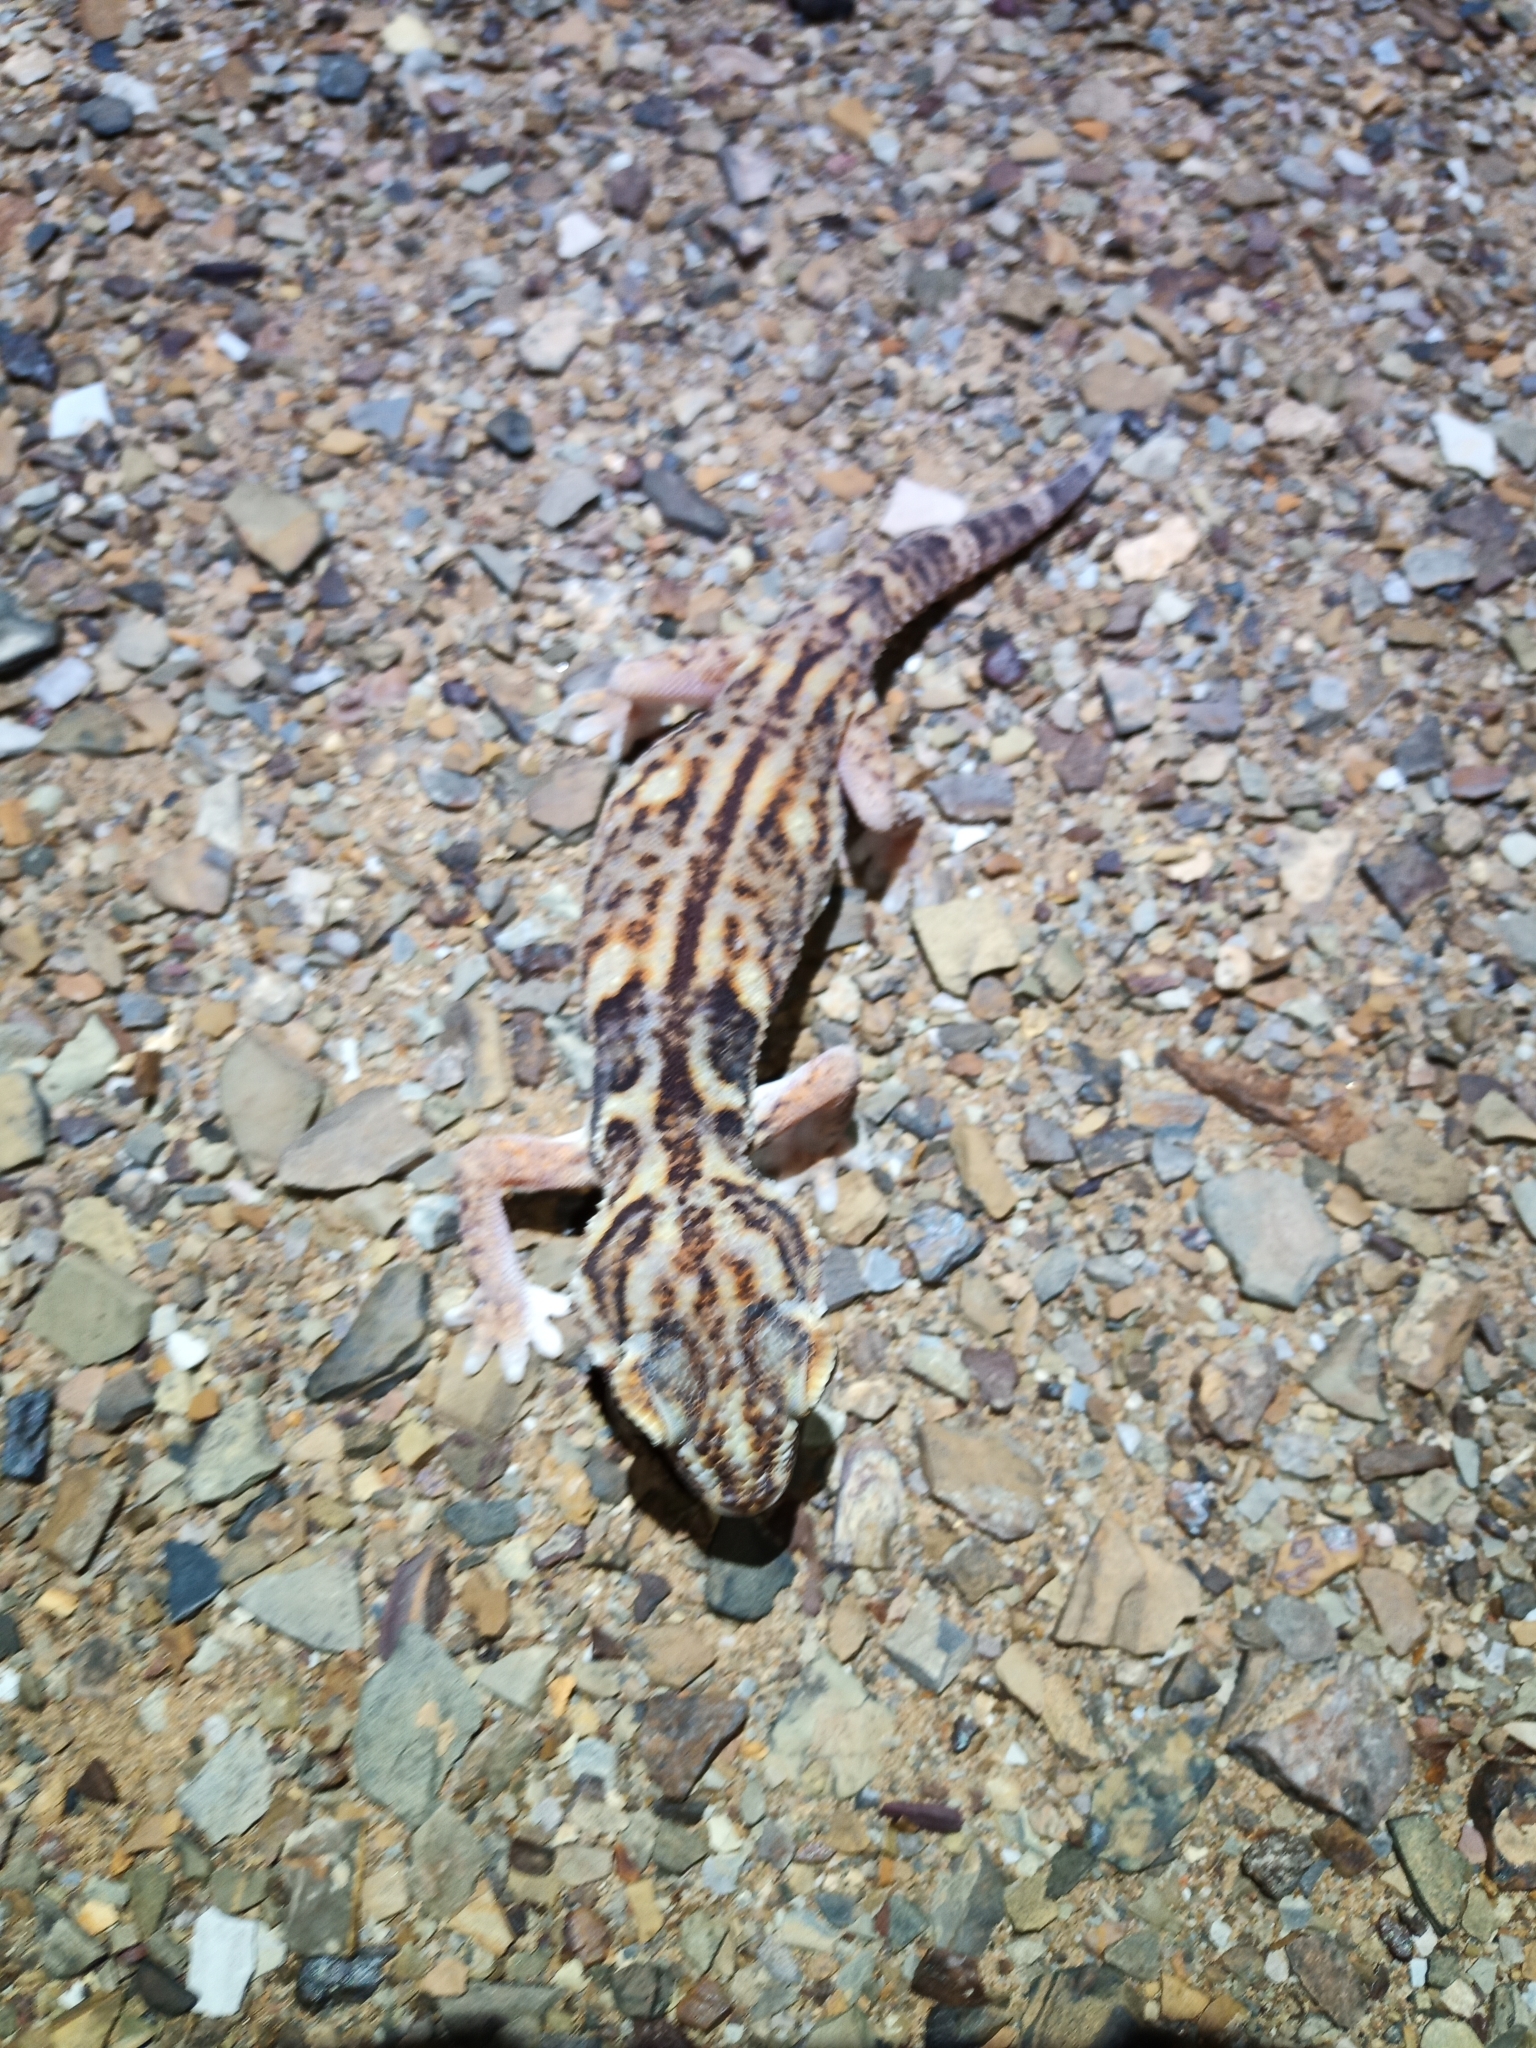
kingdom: Animalia
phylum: Chordata
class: Squamata
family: Gekkonidae
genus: Chondrodactylus
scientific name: Chondrodactylus angulifer
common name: Common giant ground gecko
